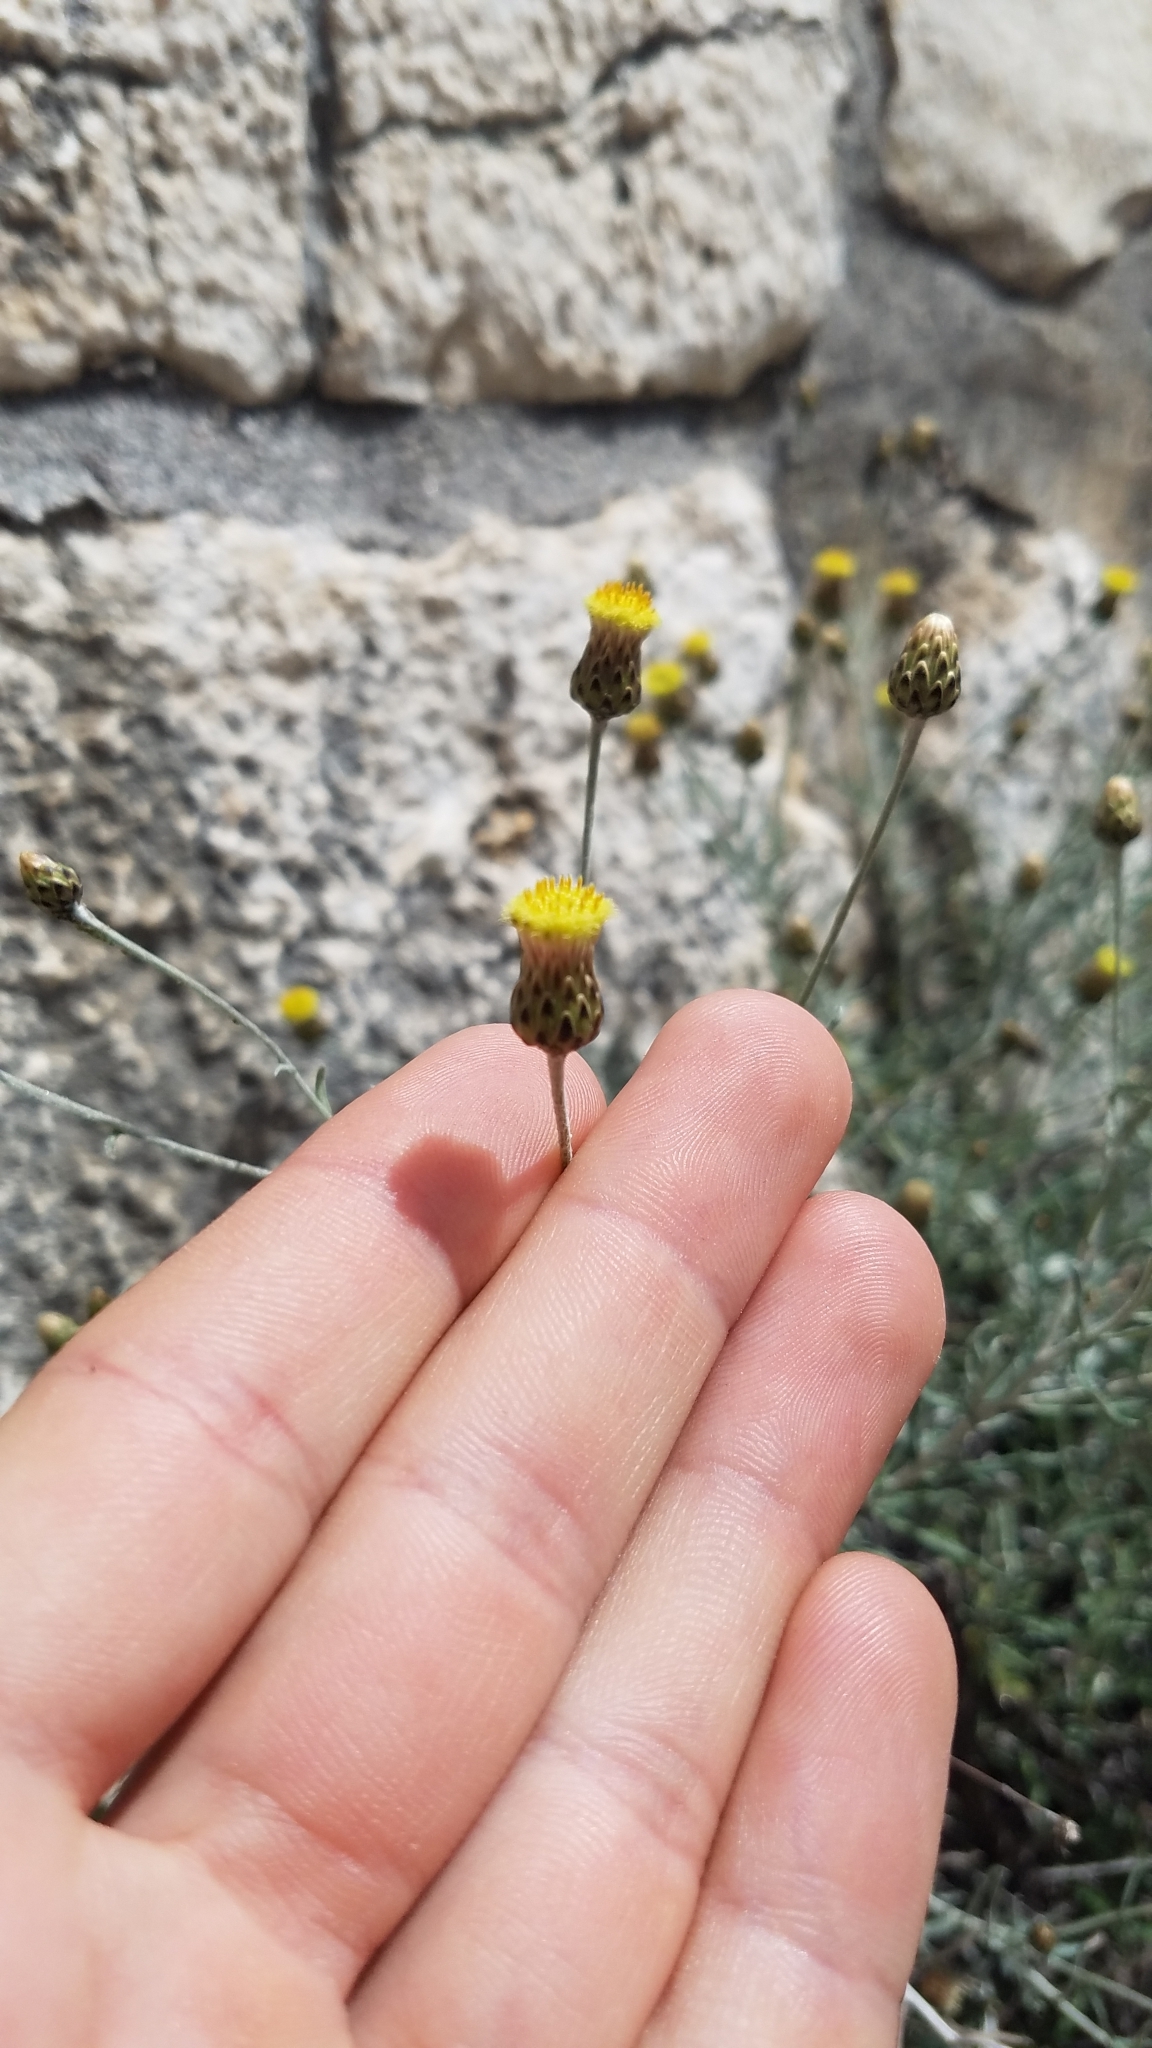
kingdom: Plantae
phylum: Tracheophyta
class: Magnoliopsida
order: Asterales
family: Asteraceae
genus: Phagnalon
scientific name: Phagnalon rupestre
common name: Rock phagnalon
